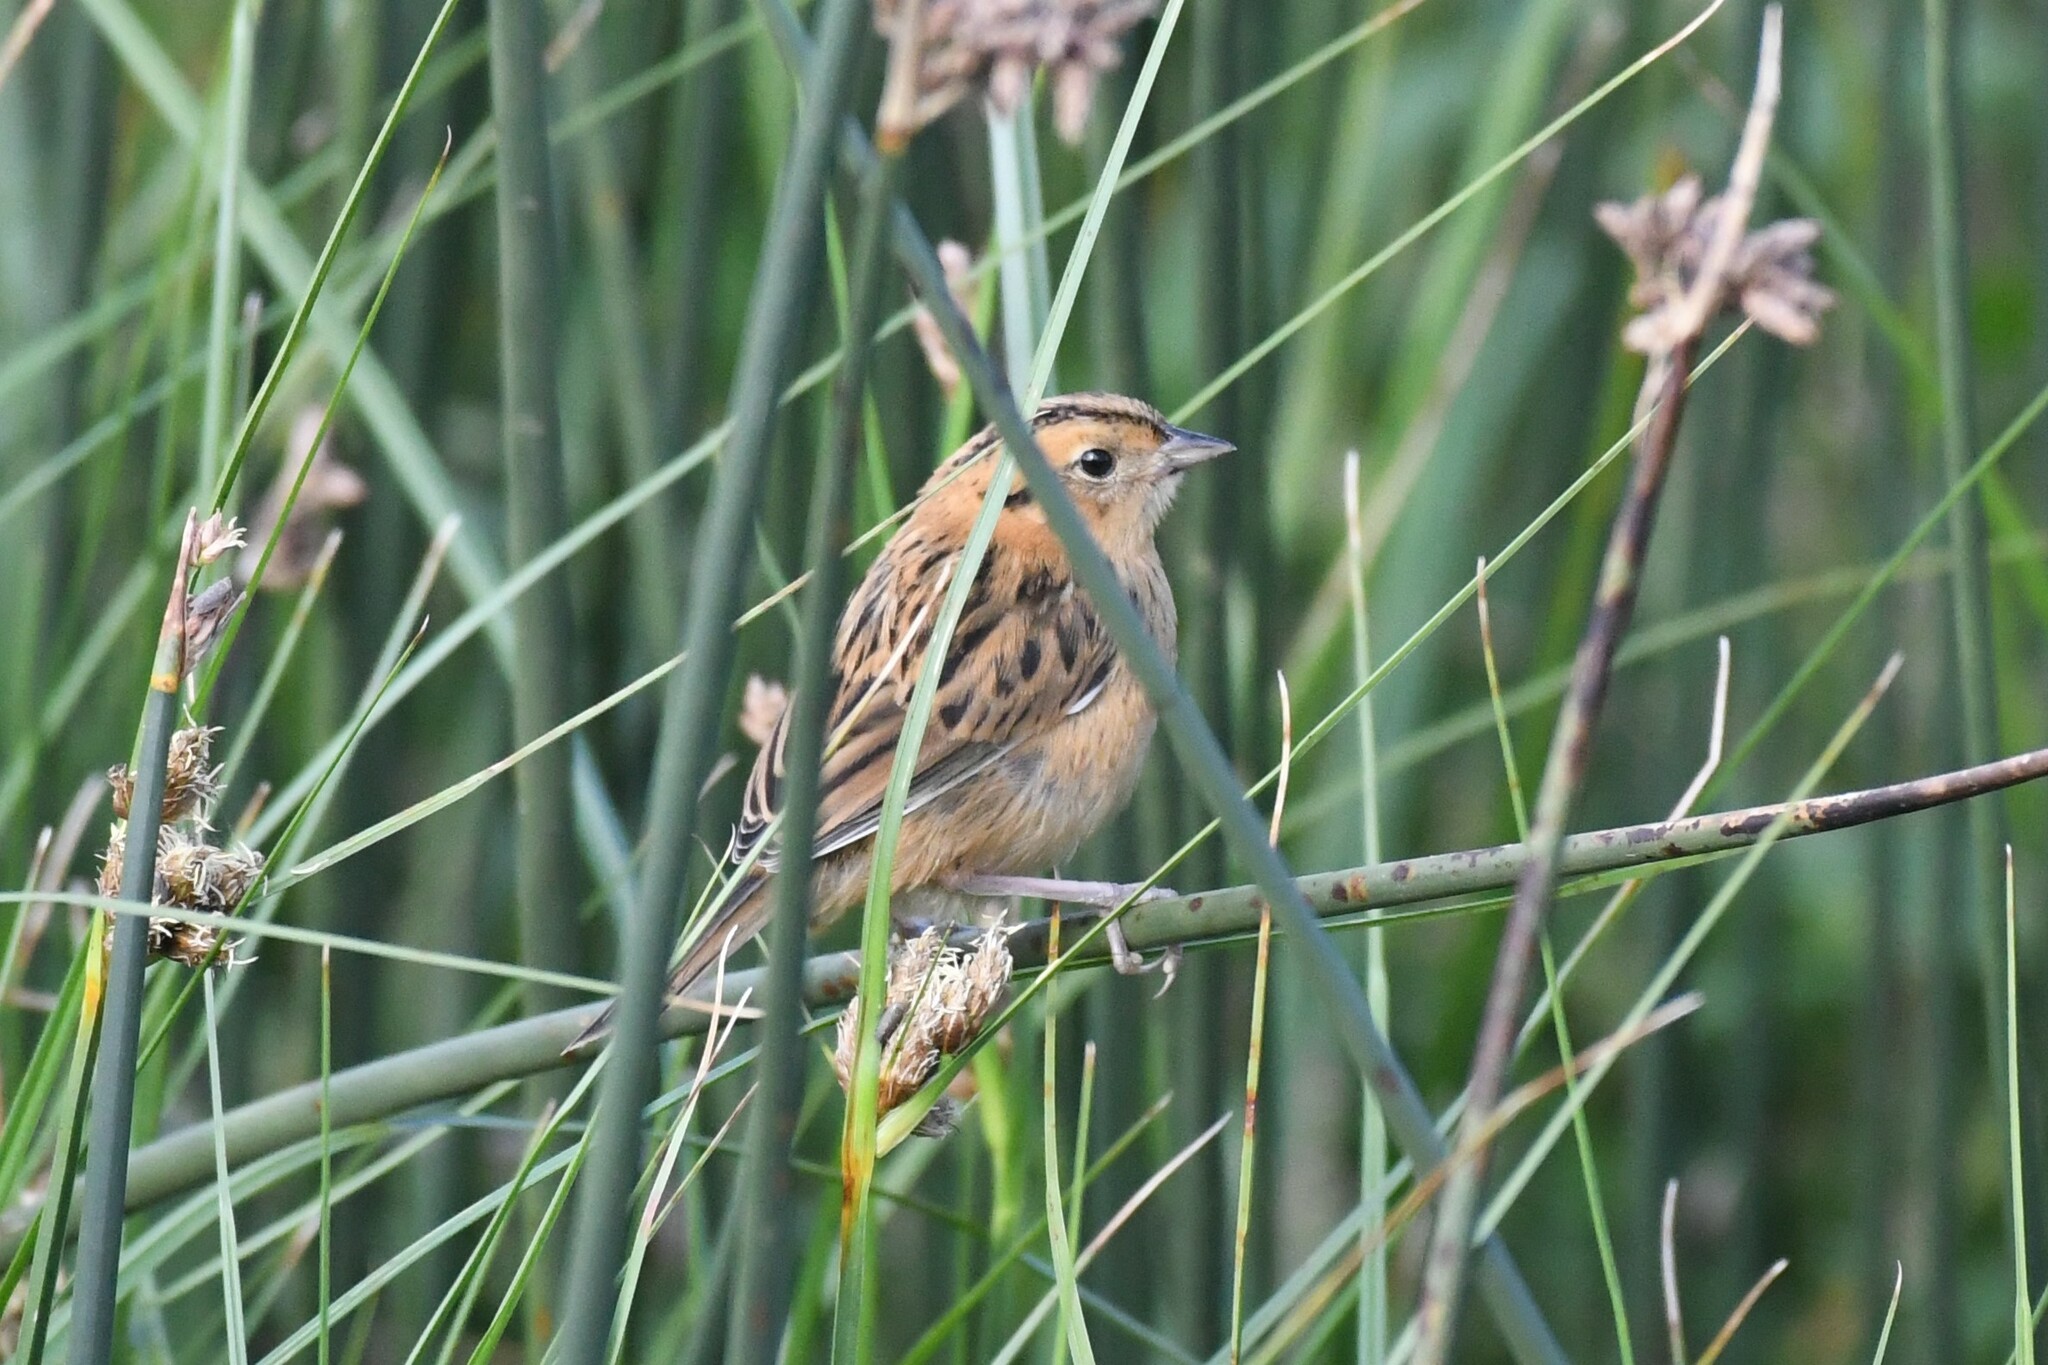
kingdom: Animalia
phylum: Chordata
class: Aves
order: Passeriformes
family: Passerellidae
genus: Ammospiza
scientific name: Ammospiza leconteii
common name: Le conte's sparrow
